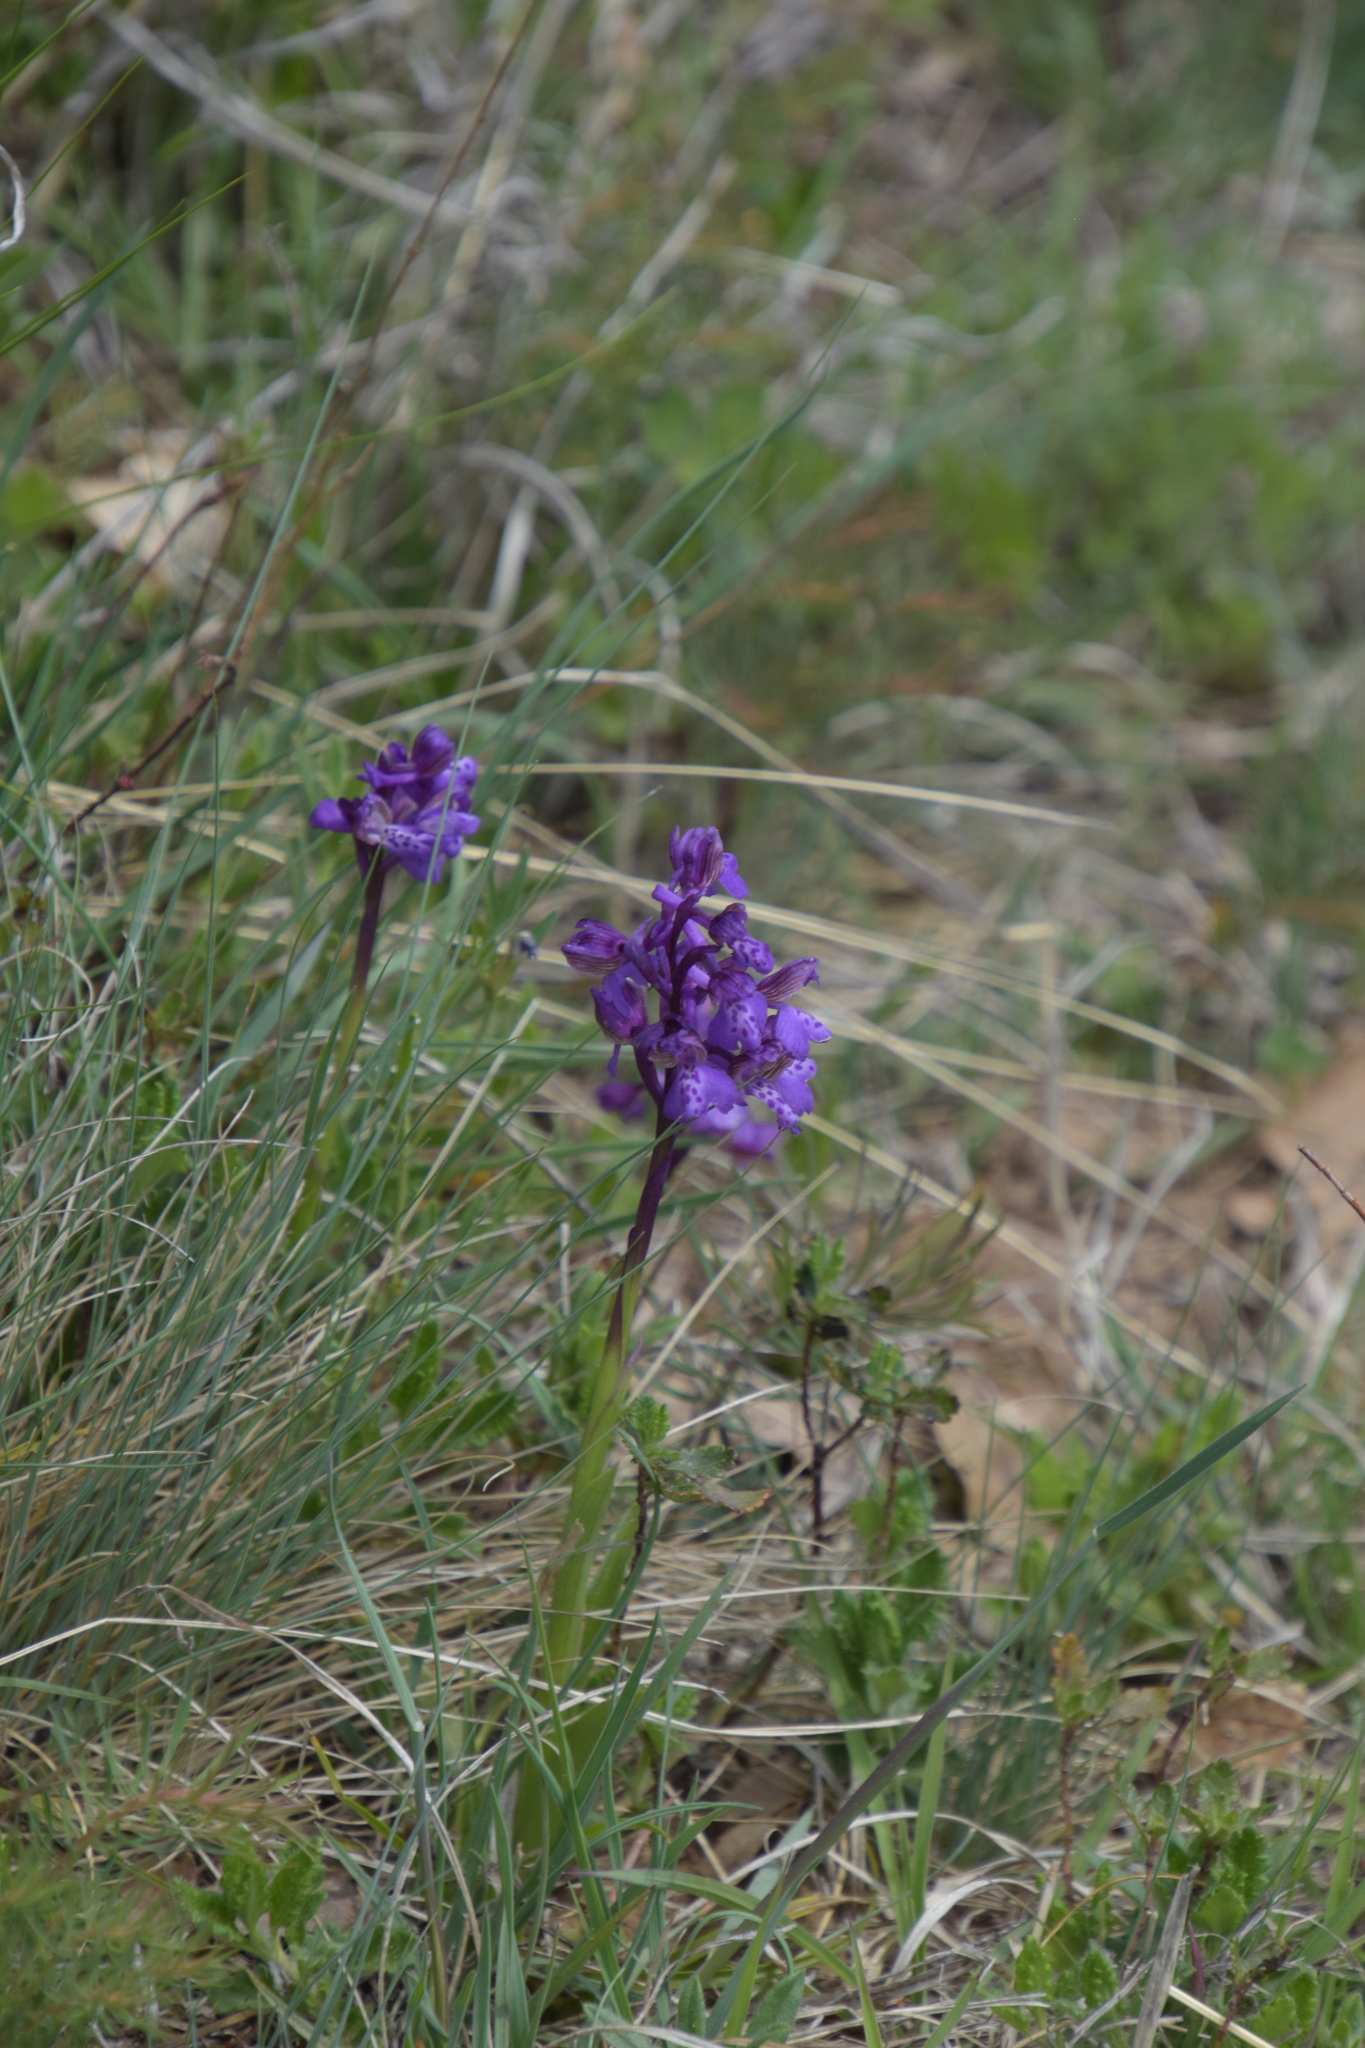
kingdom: Plantae
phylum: Tracheophyta
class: Liliopsida
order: Asparagales
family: Orchidaceae
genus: Anacamptis
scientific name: Anacamptis morio
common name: Green-winged orchid
